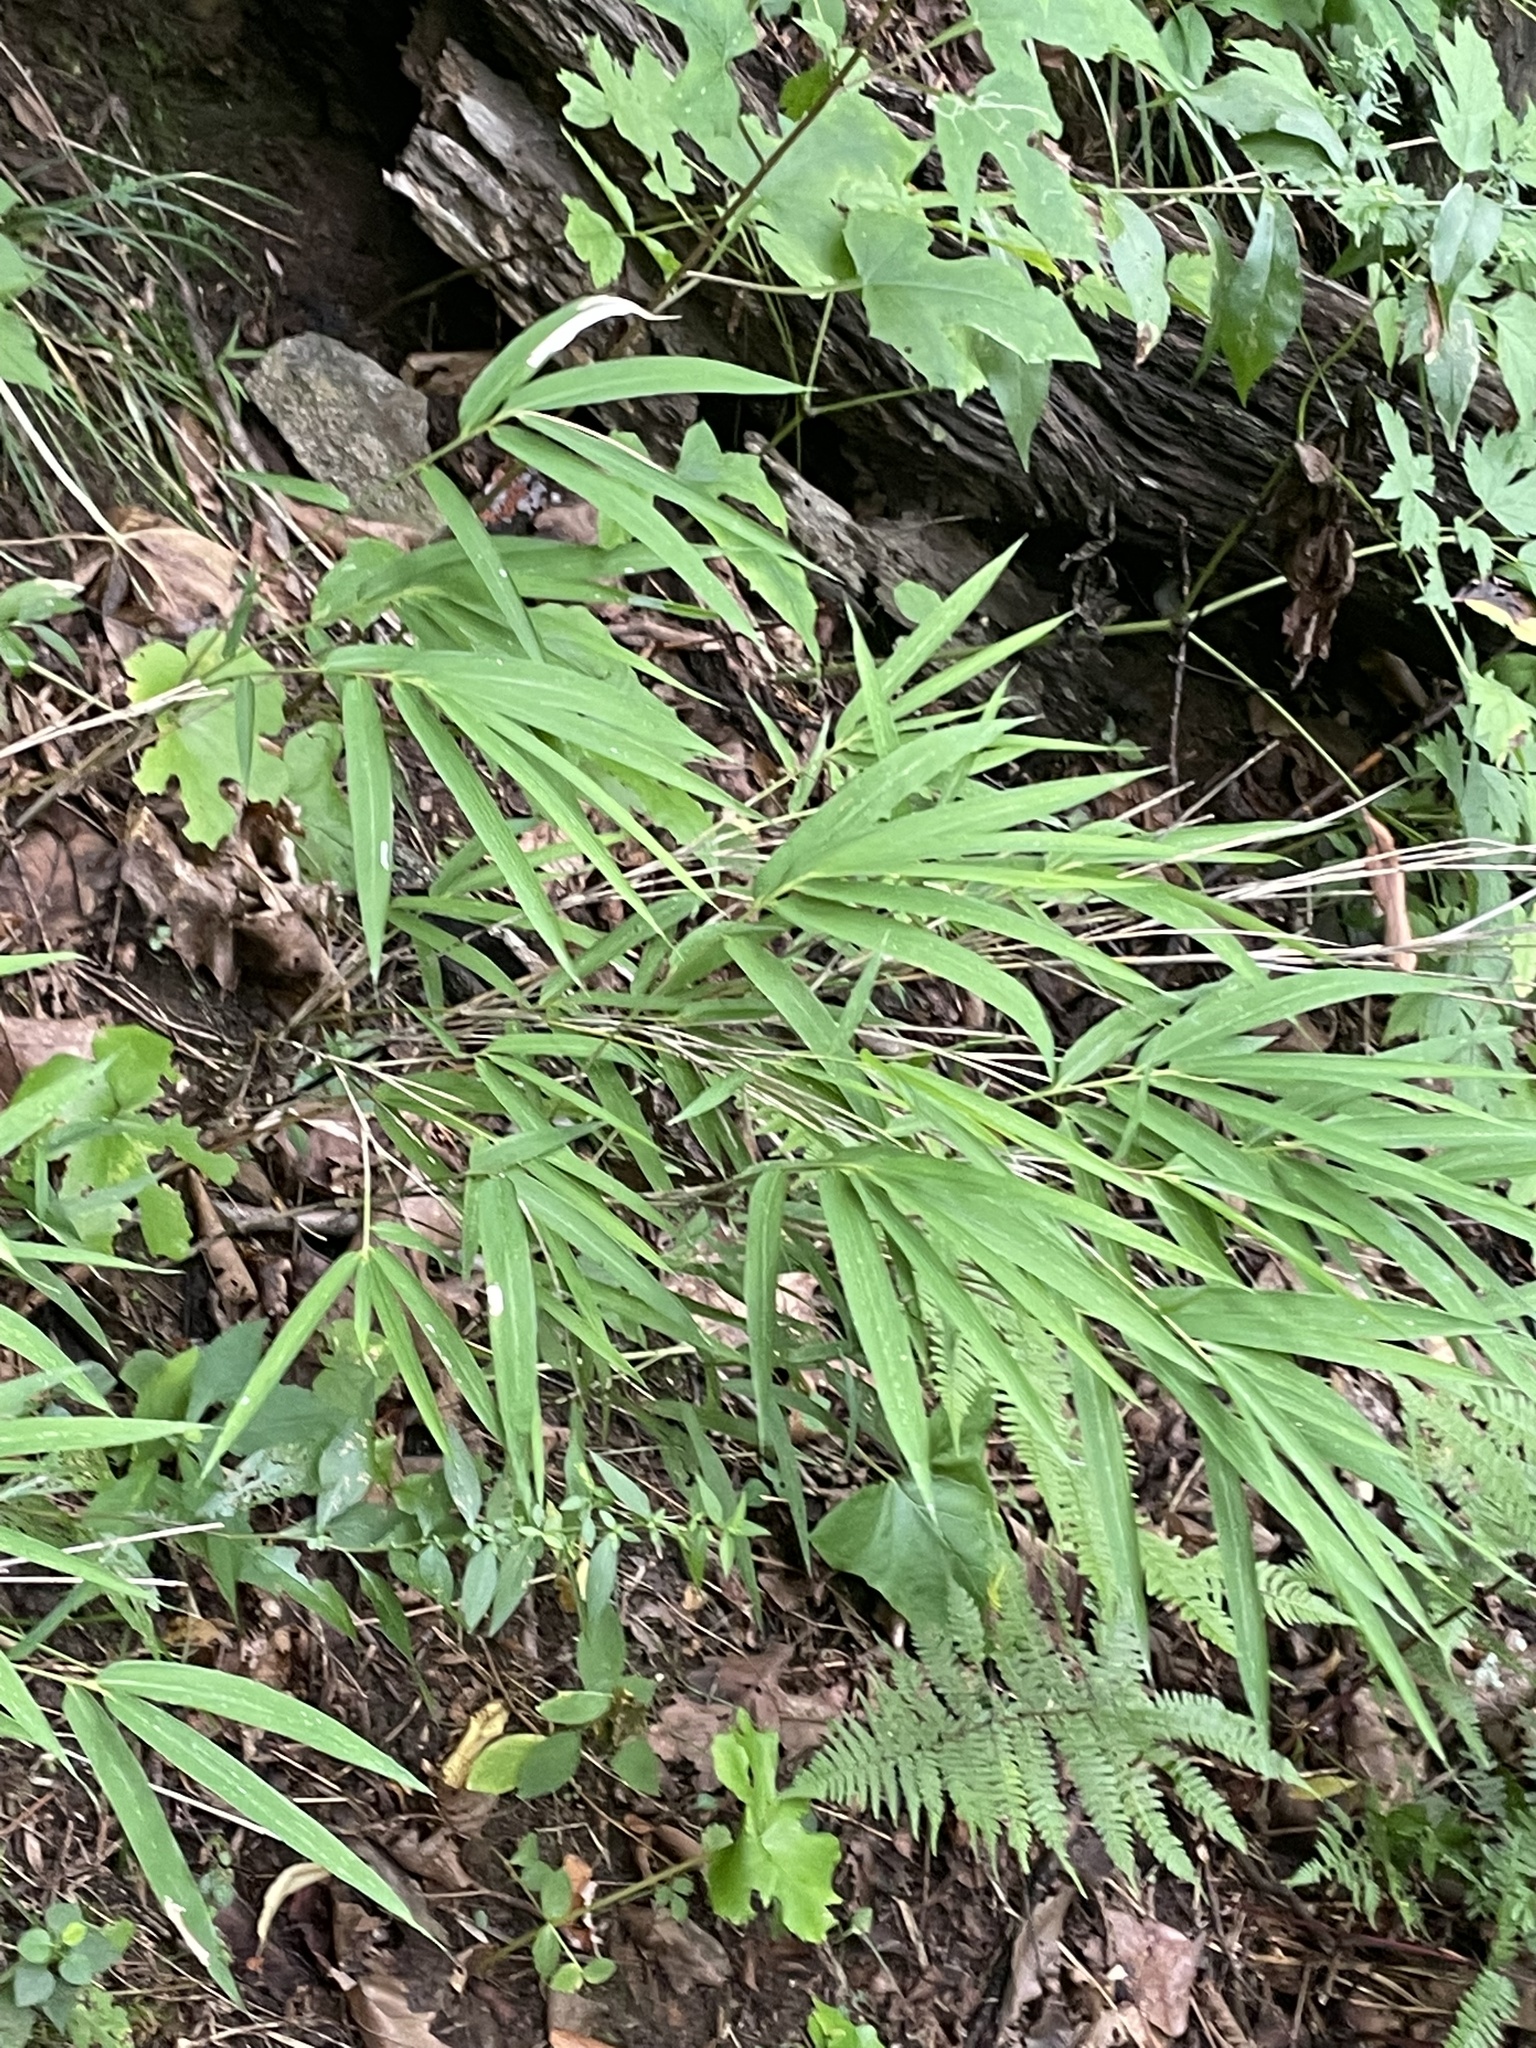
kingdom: Plantae
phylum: Tracheophyta
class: Liliopsida
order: Poales
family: Poaceae
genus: Arundinaria
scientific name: Arundinaria appalachiana
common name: Hill cane
